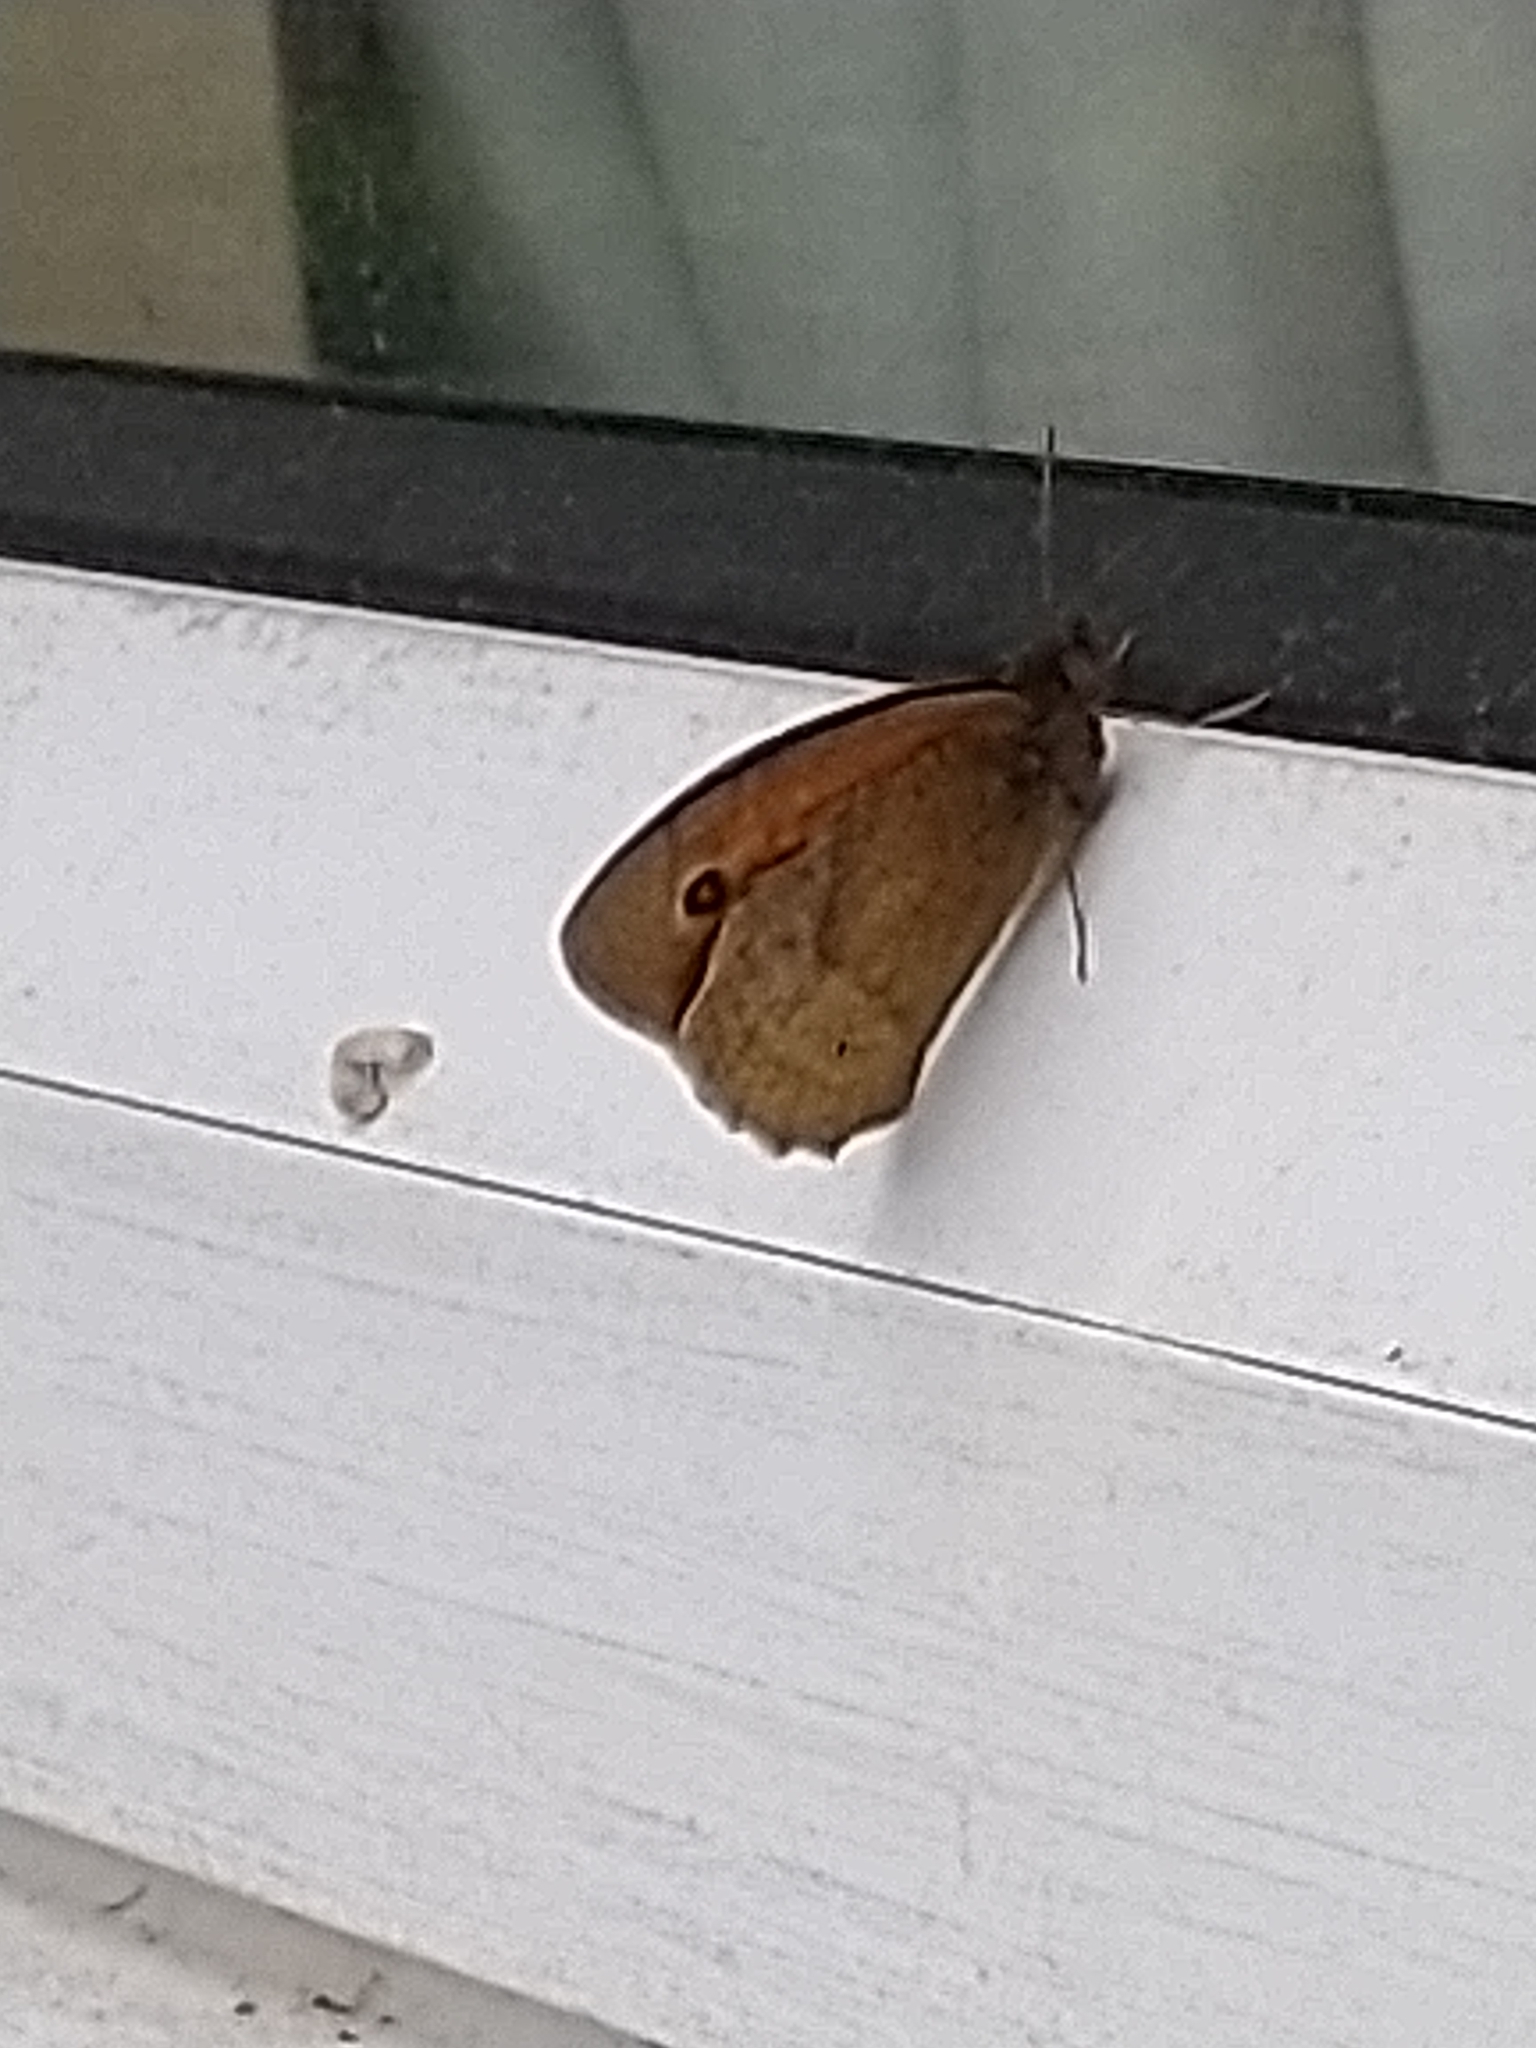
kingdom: Animalia
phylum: Arthropoda
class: Insecta
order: Lepidoptera
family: Nymphalidae
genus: Maniola
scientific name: Maniola jurtina
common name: Meadow brown
